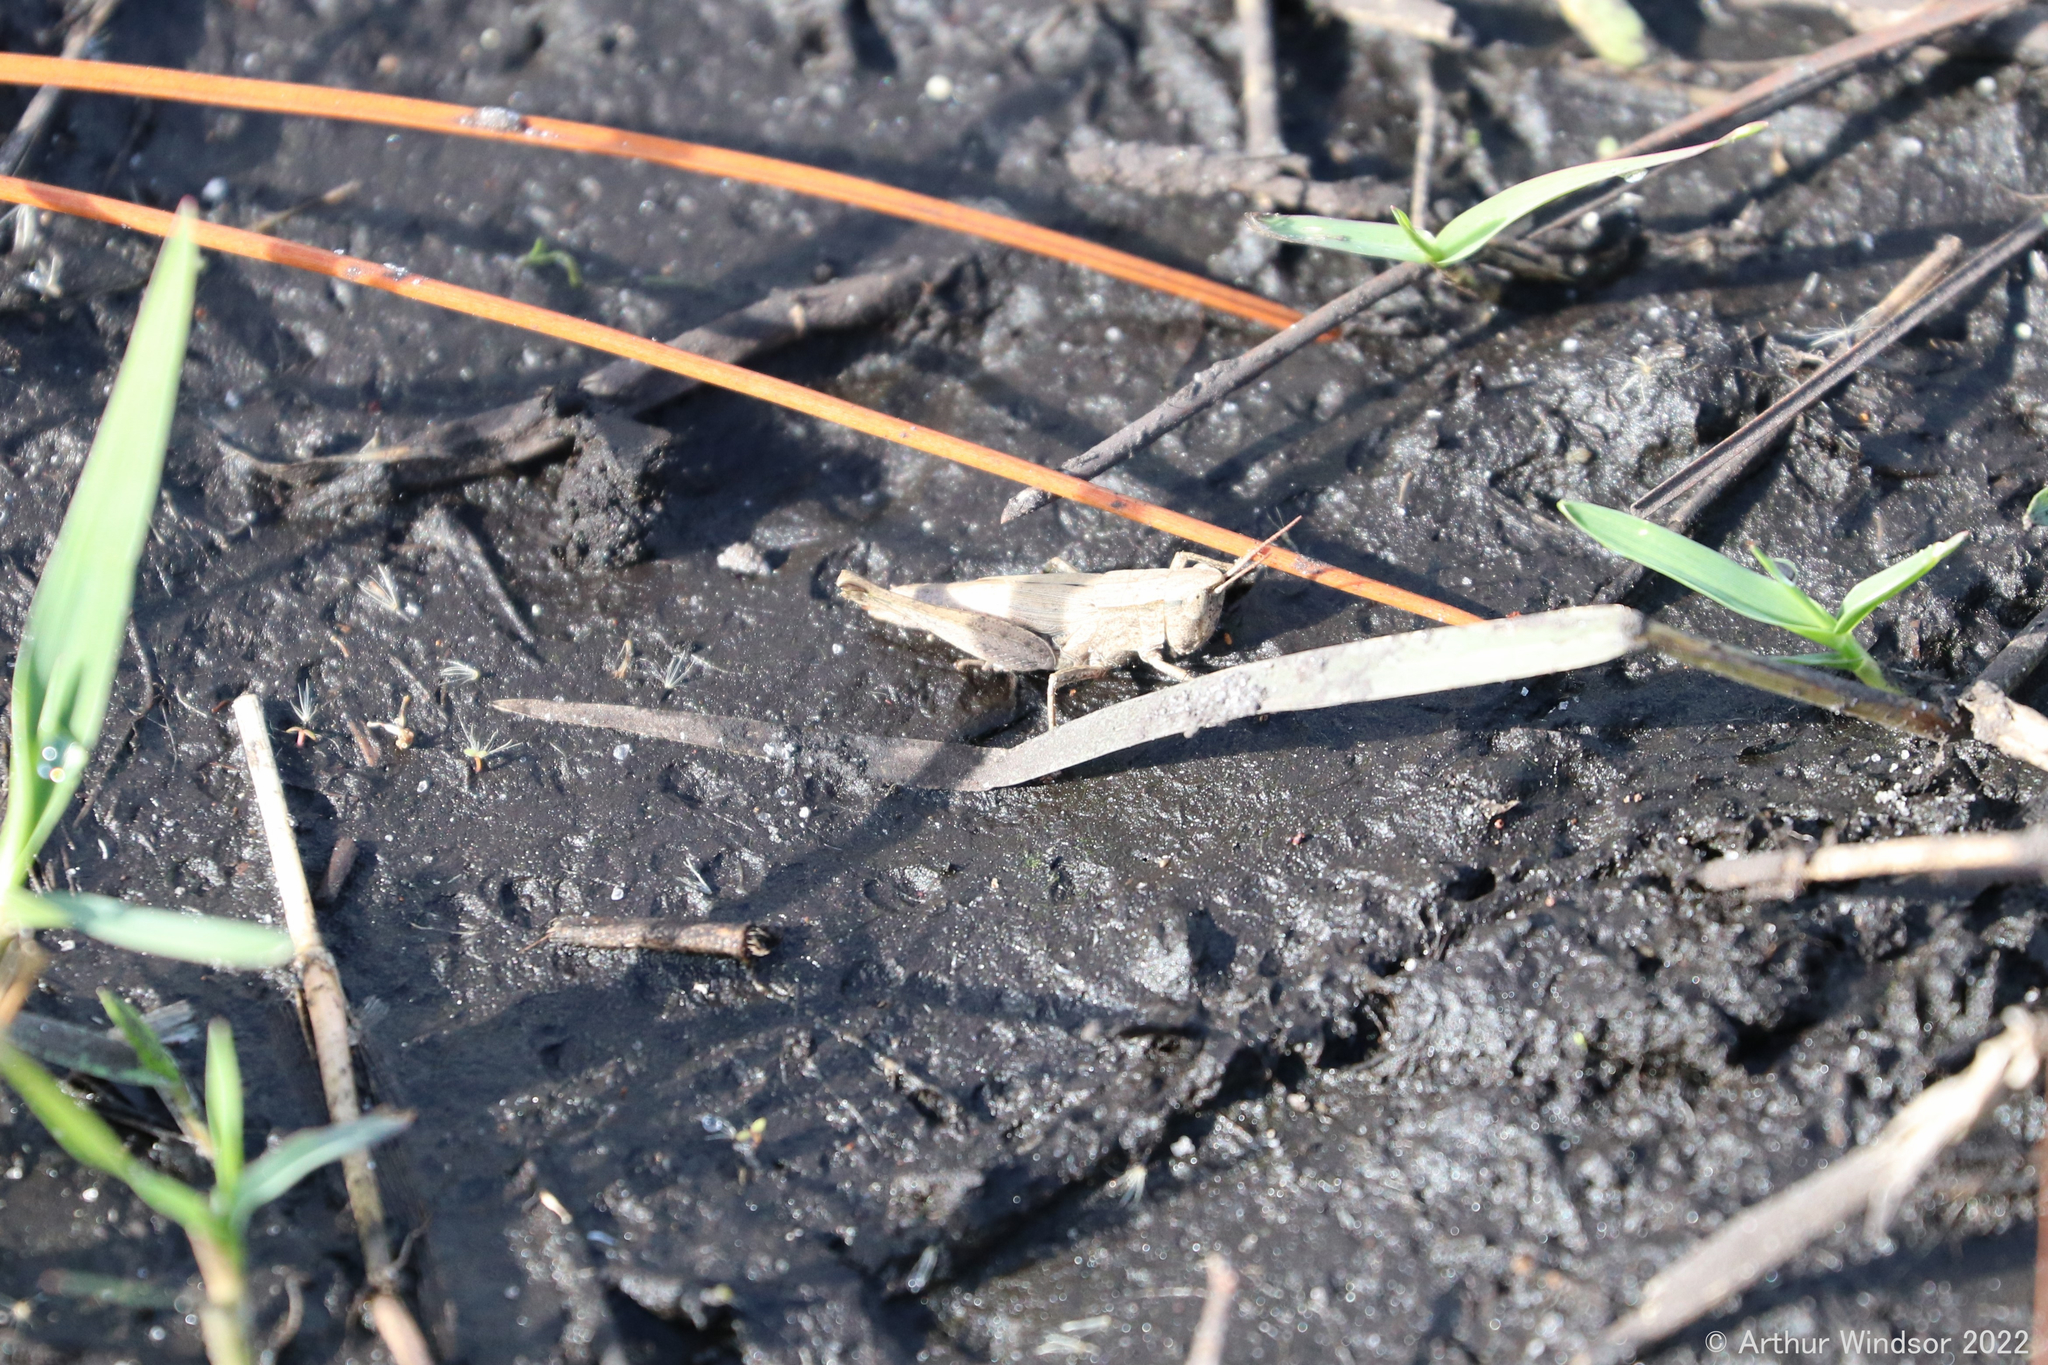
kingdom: Animalia
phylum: Arthropoda
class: Insecta
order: Orthoptera
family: Acrididae
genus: Dichromorpha
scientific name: Dichromorpha viridis
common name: Short-winged green grasshopper
